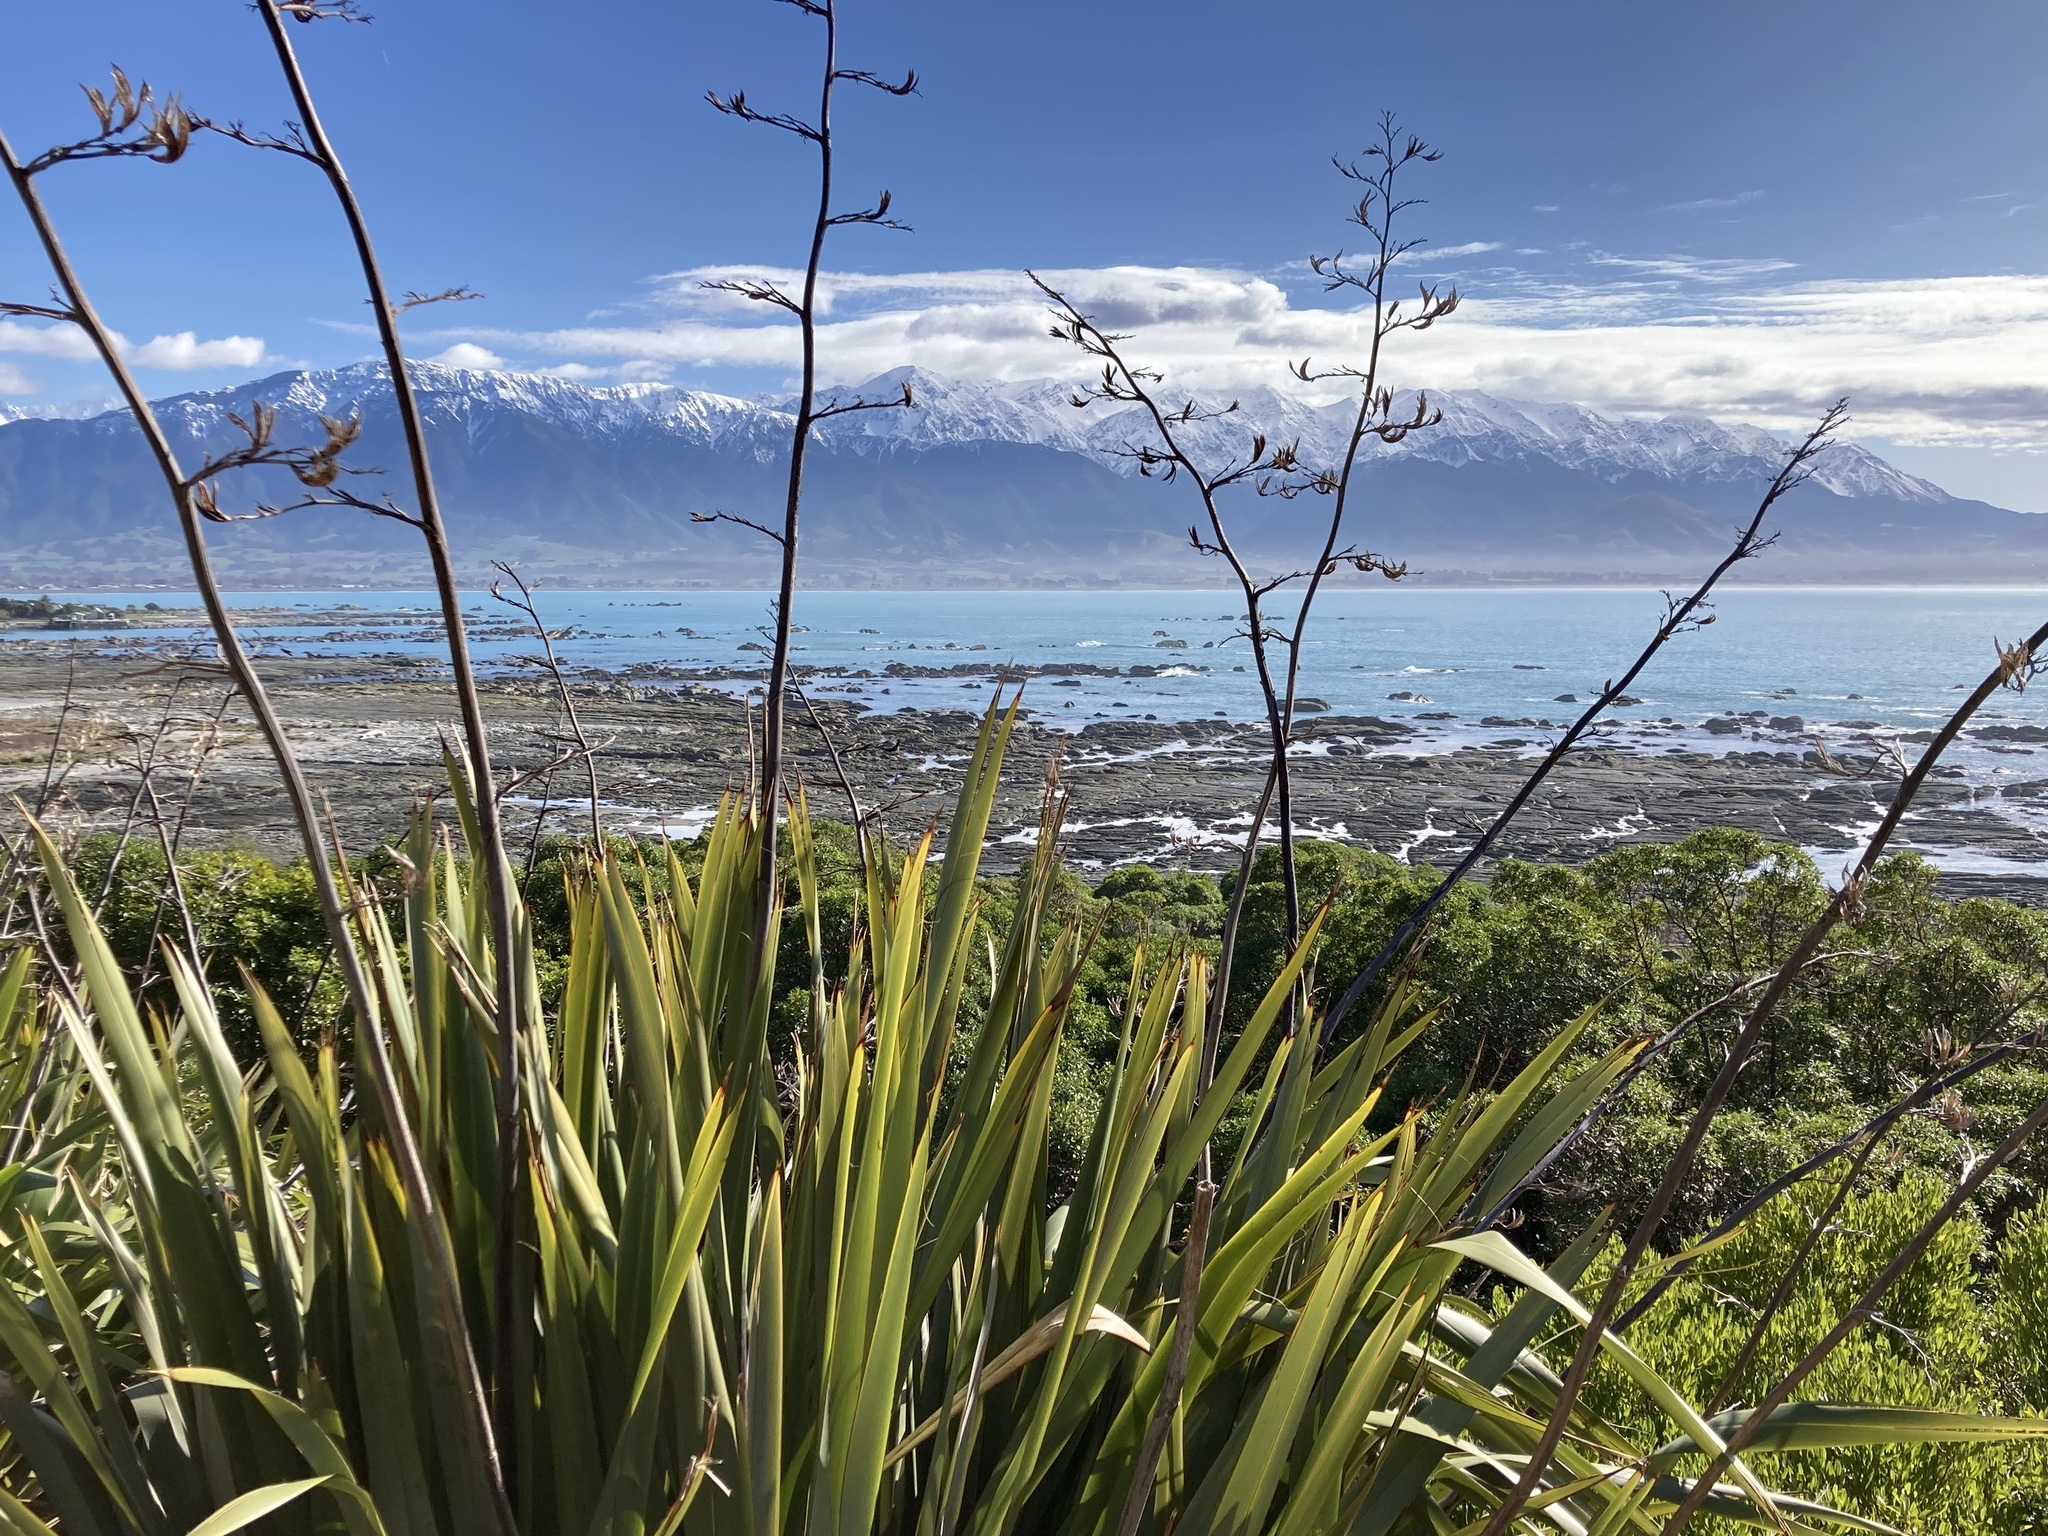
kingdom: Plantae
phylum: Tracheophyta
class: Liliopsida
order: Asparagales
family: Asphodelaceae
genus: Phormium
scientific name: Phormium tenax
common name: New zealand flax
